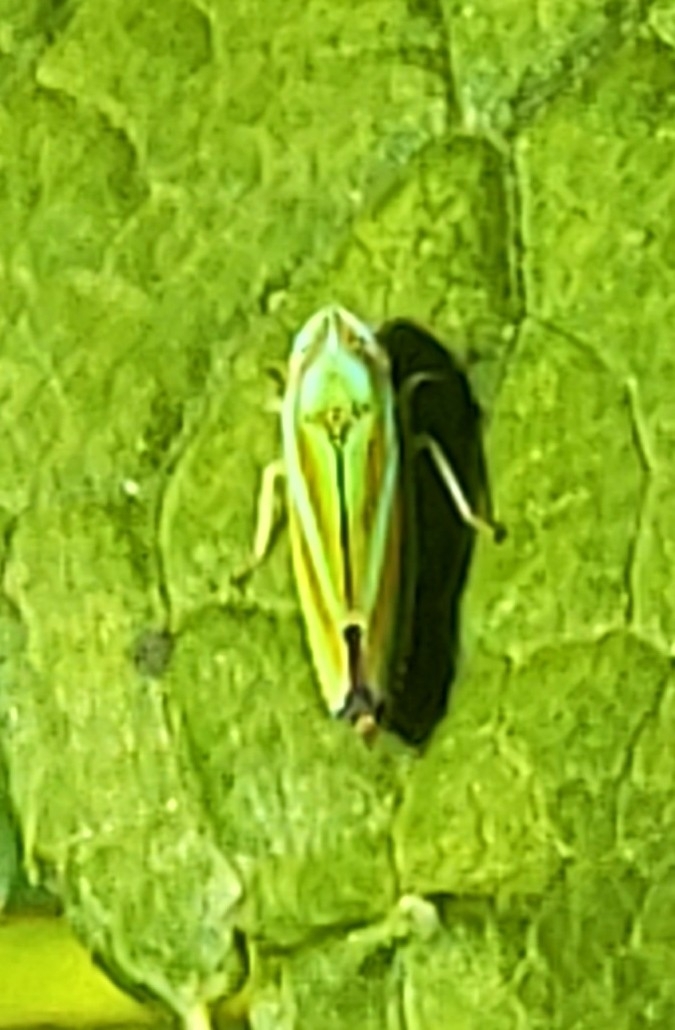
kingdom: Animalia
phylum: Arthropoda
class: Insecta
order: Hemiptera
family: Cicadellidae
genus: Graphocephala
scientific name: Graphocephala versuta
